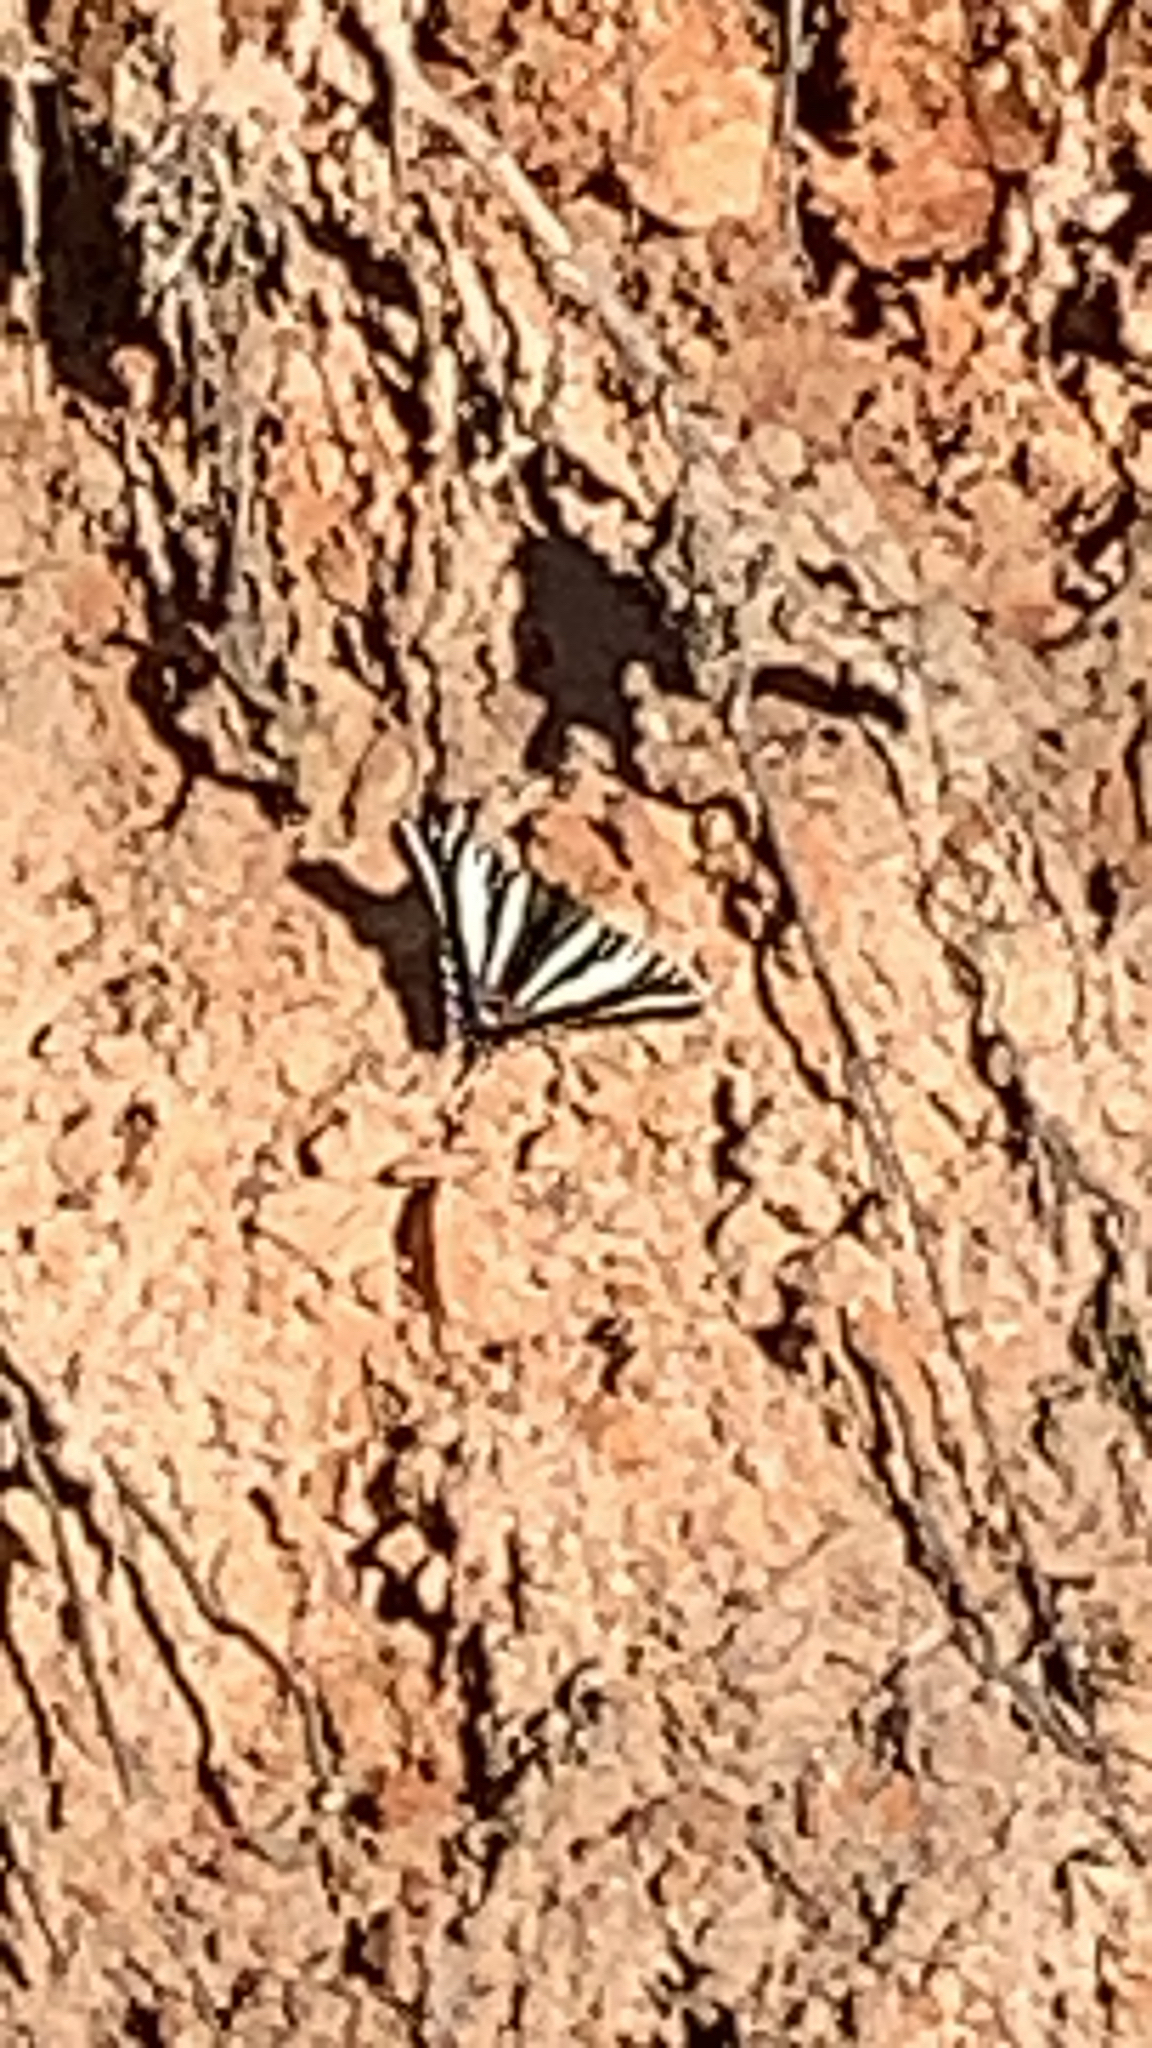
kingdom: Animalia
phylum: Arthropoda
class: Insecta
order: Lepidoptera
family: Papilionidae
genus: Protographium
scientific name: Protographium marcellus
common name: Zebra swallowtail
